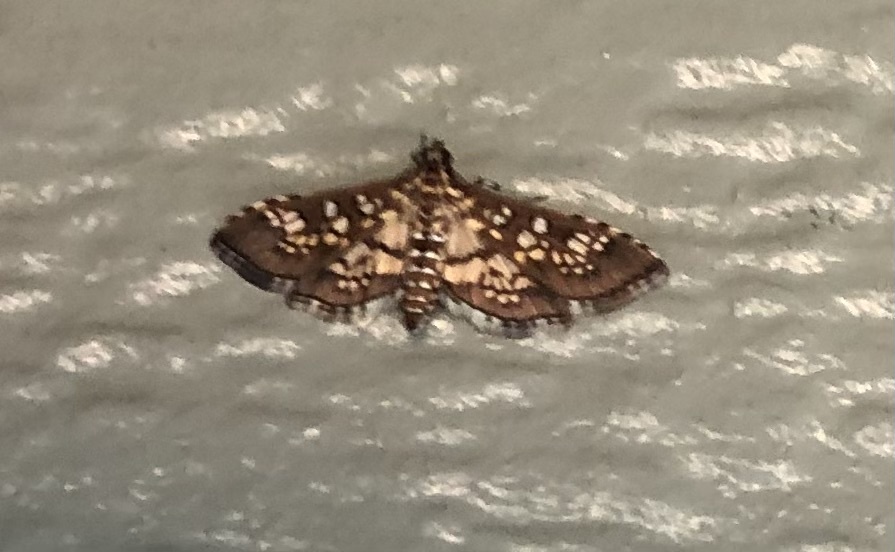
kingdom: Animalia
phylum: Arthropoda
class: Insecta
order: Lepidoptera
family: Crambidae
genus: Samea
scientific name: Samea ecclesialis
